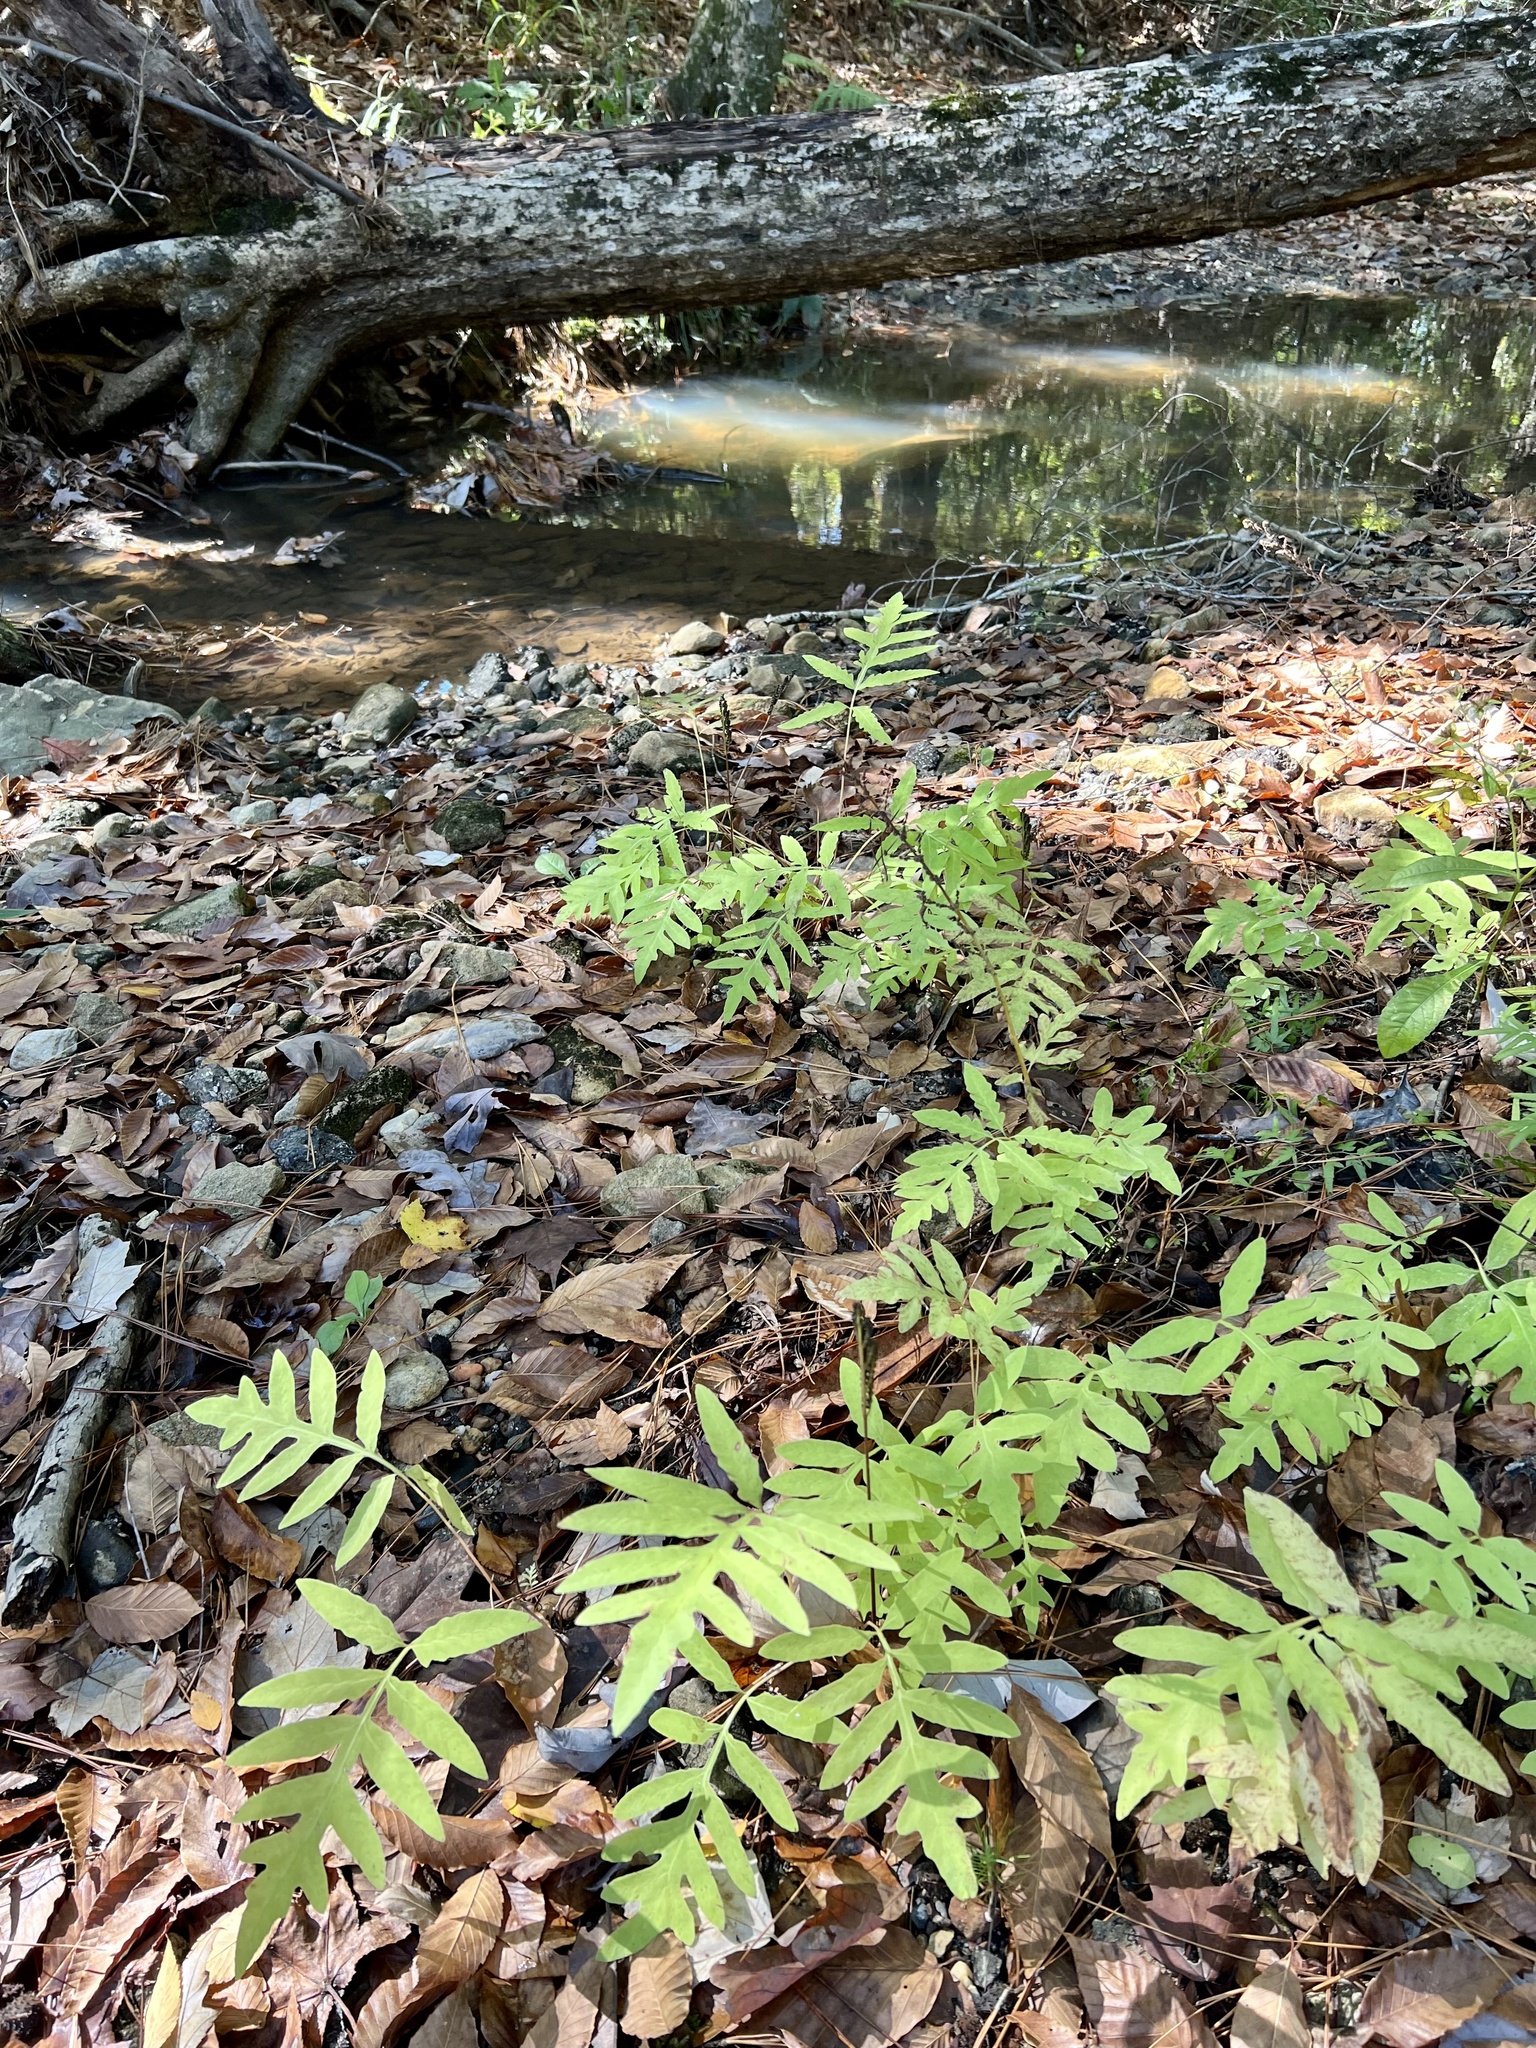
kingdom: Plantae
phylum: Tracheophyta
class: Polypodiopsida
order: Polypodiales
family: Onocleaceae
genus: Onoclea
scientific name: Onoclea sensibilis
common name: Sensitive fern
